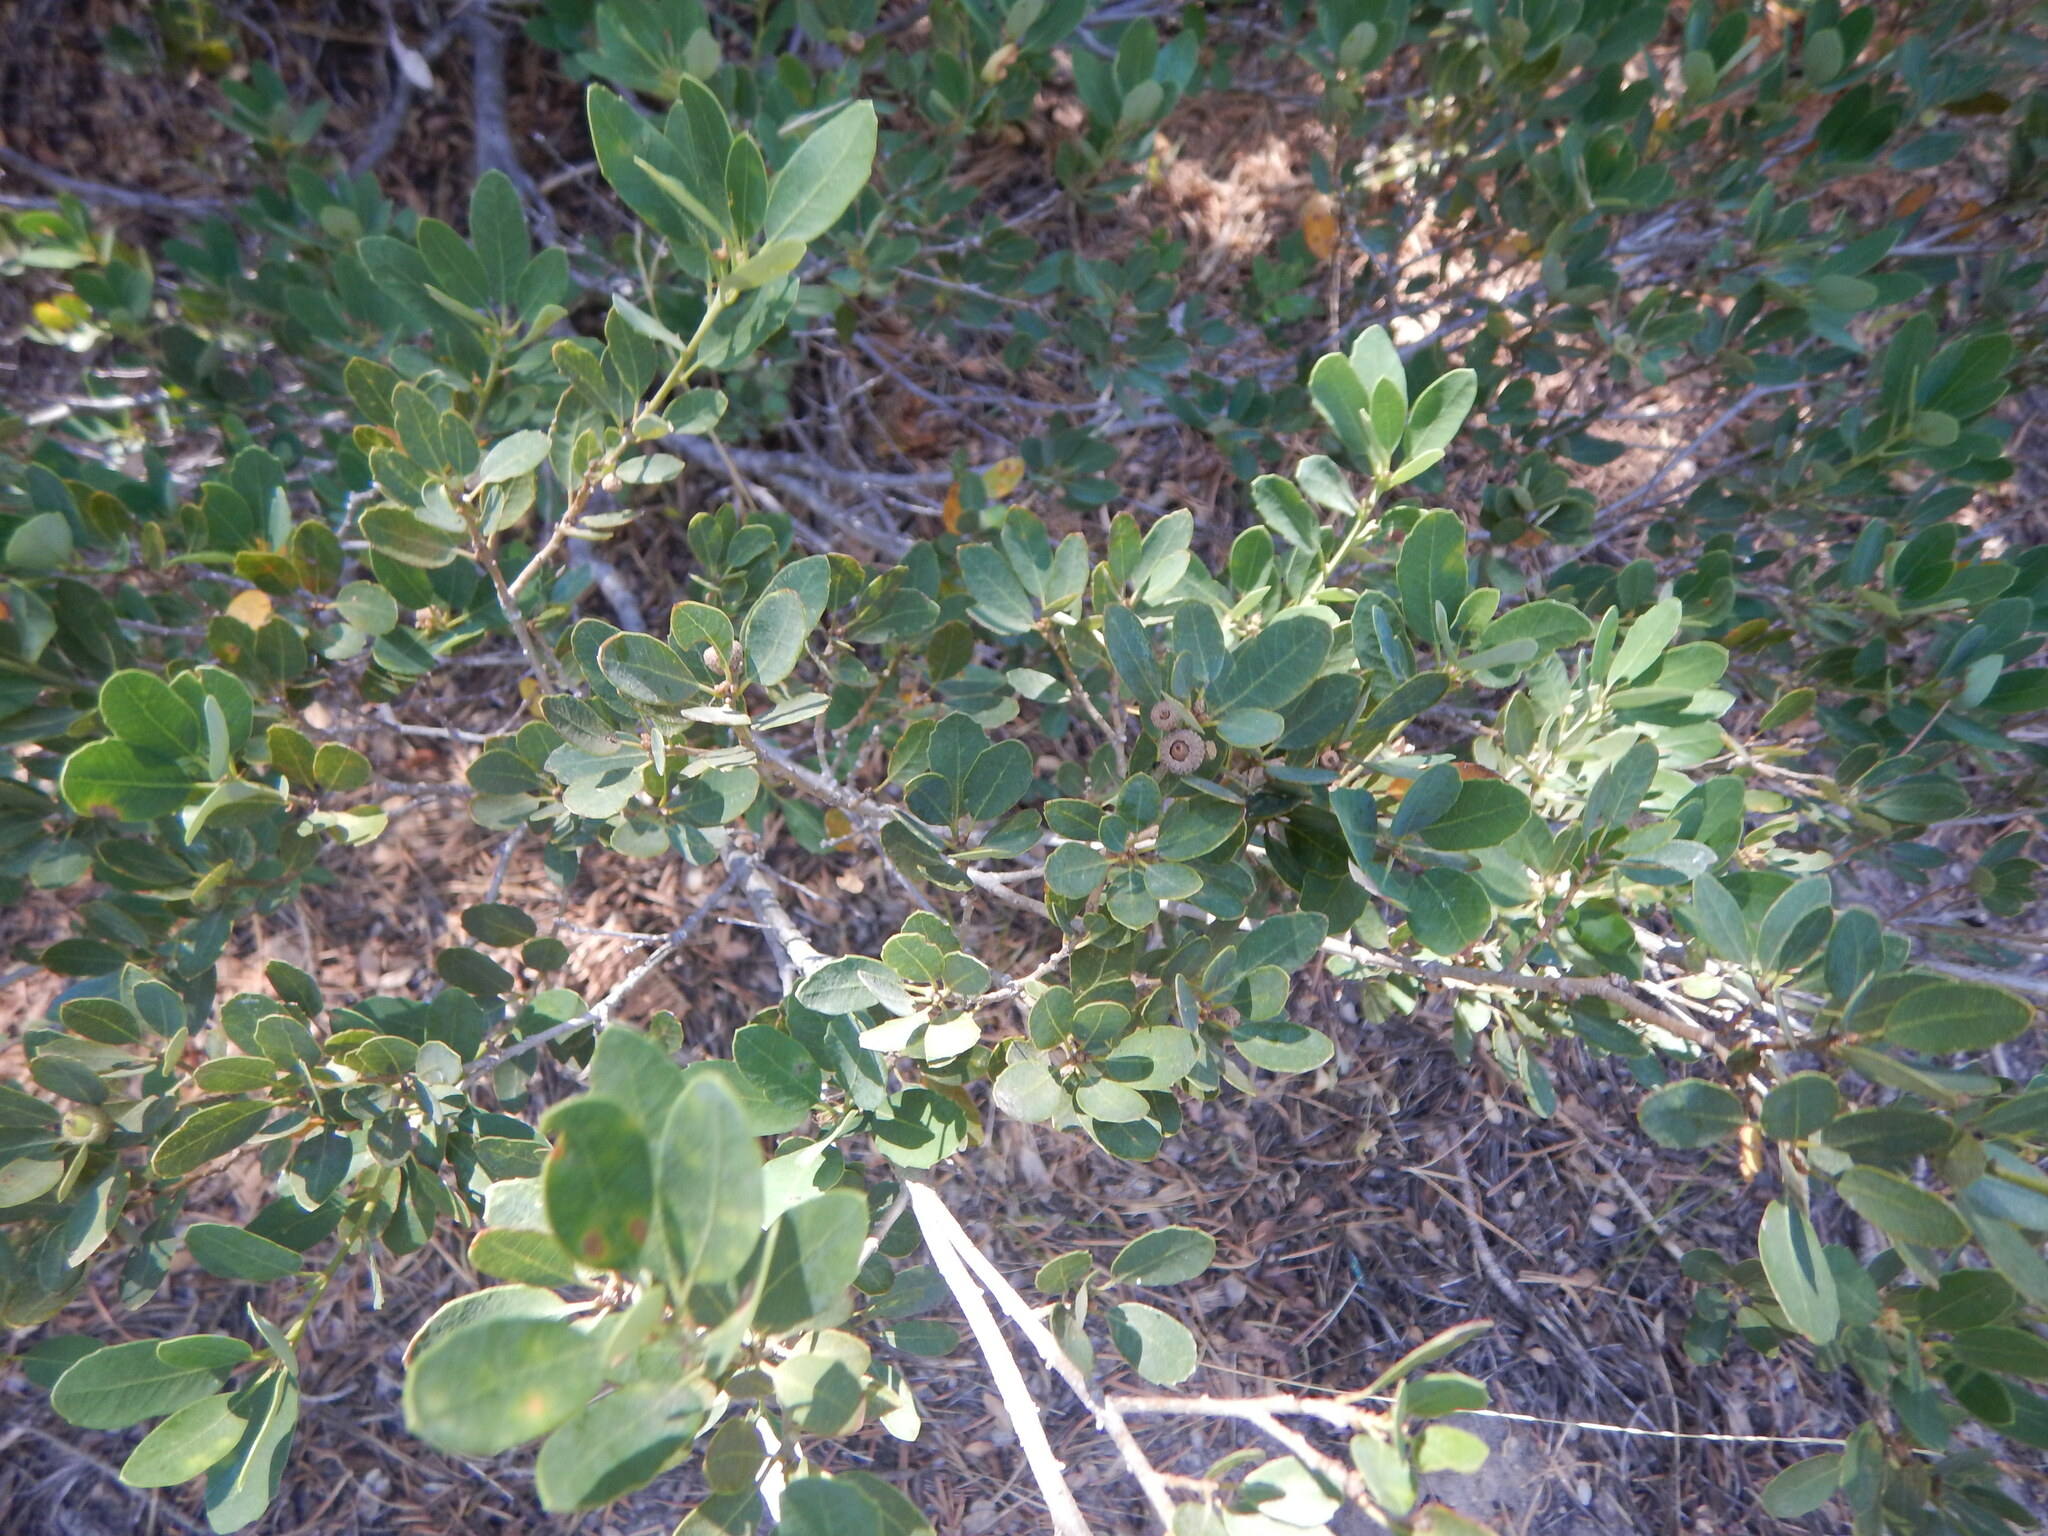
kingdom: Plantae
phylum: Tracheophyta
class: Magnoliopsida
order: Fagales
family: Fagaceae
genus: Quercus
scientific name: Quercus vacciniifolia
